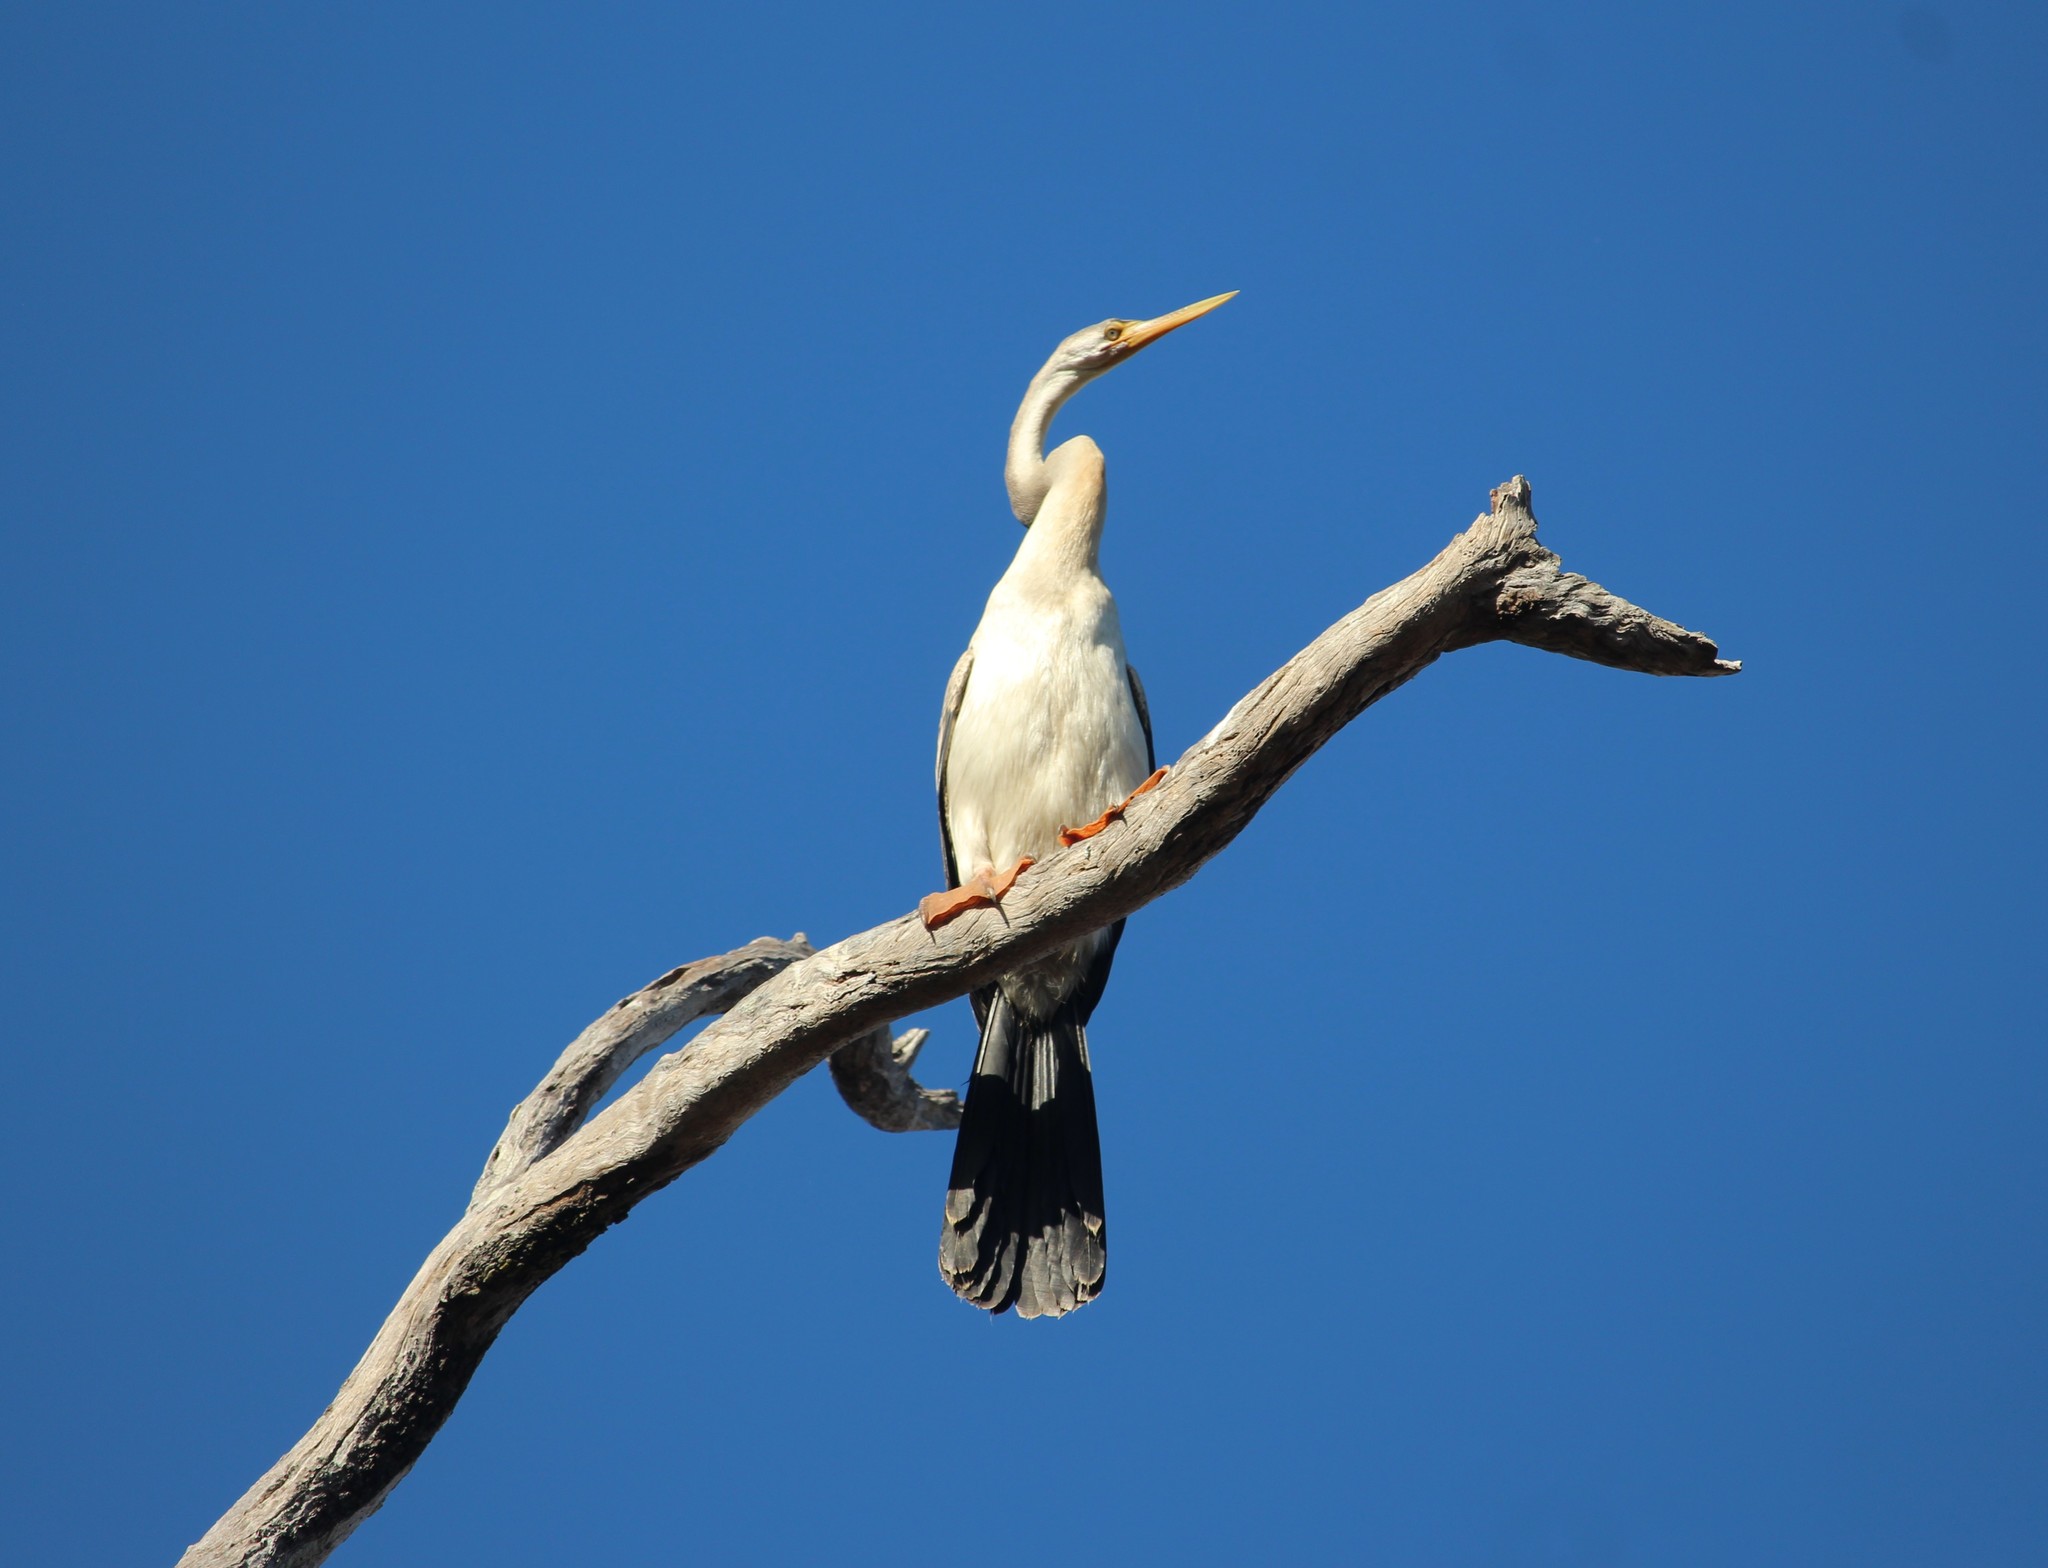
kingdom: Animalia
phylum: Chordata
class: Aves
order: Suliformes
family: Anhingidae
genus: Anhinga
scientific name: Anhinga novaehollandiae
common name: Australasian darter
